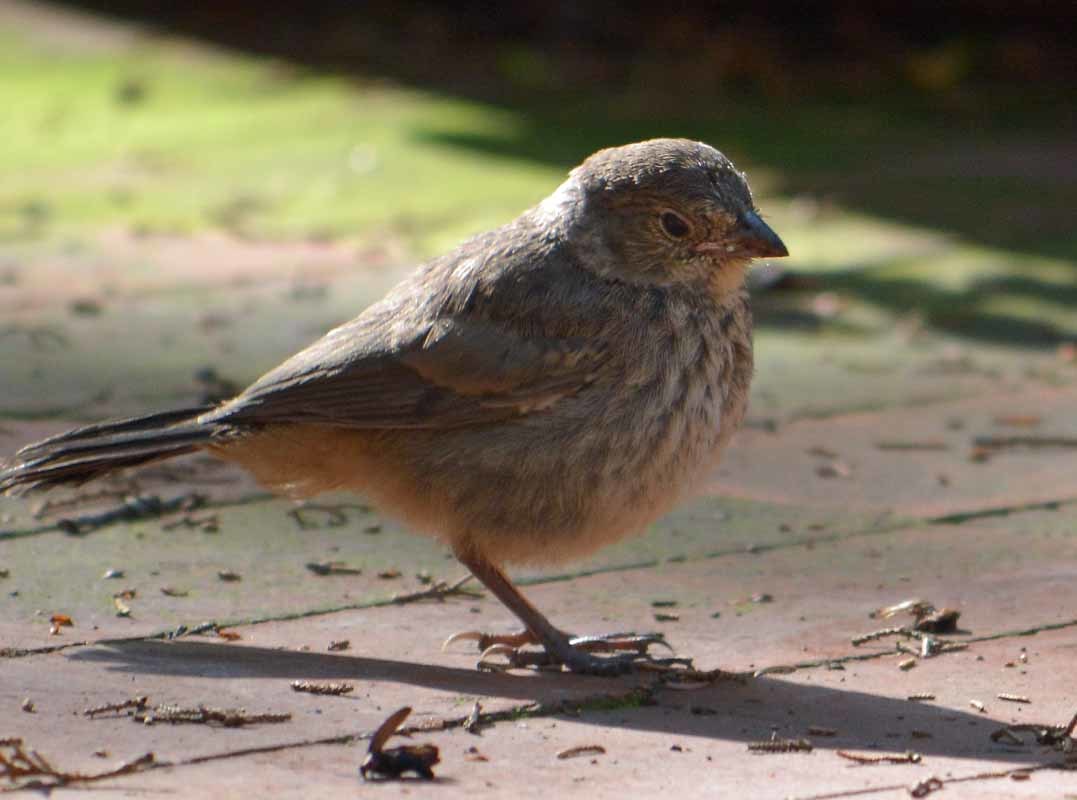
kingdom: Animalia
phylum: Chordata
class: Aves
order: Passeriformes
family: Passerellidae
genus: Melozone
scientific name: Melozone fusca
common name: Canyon towhee
